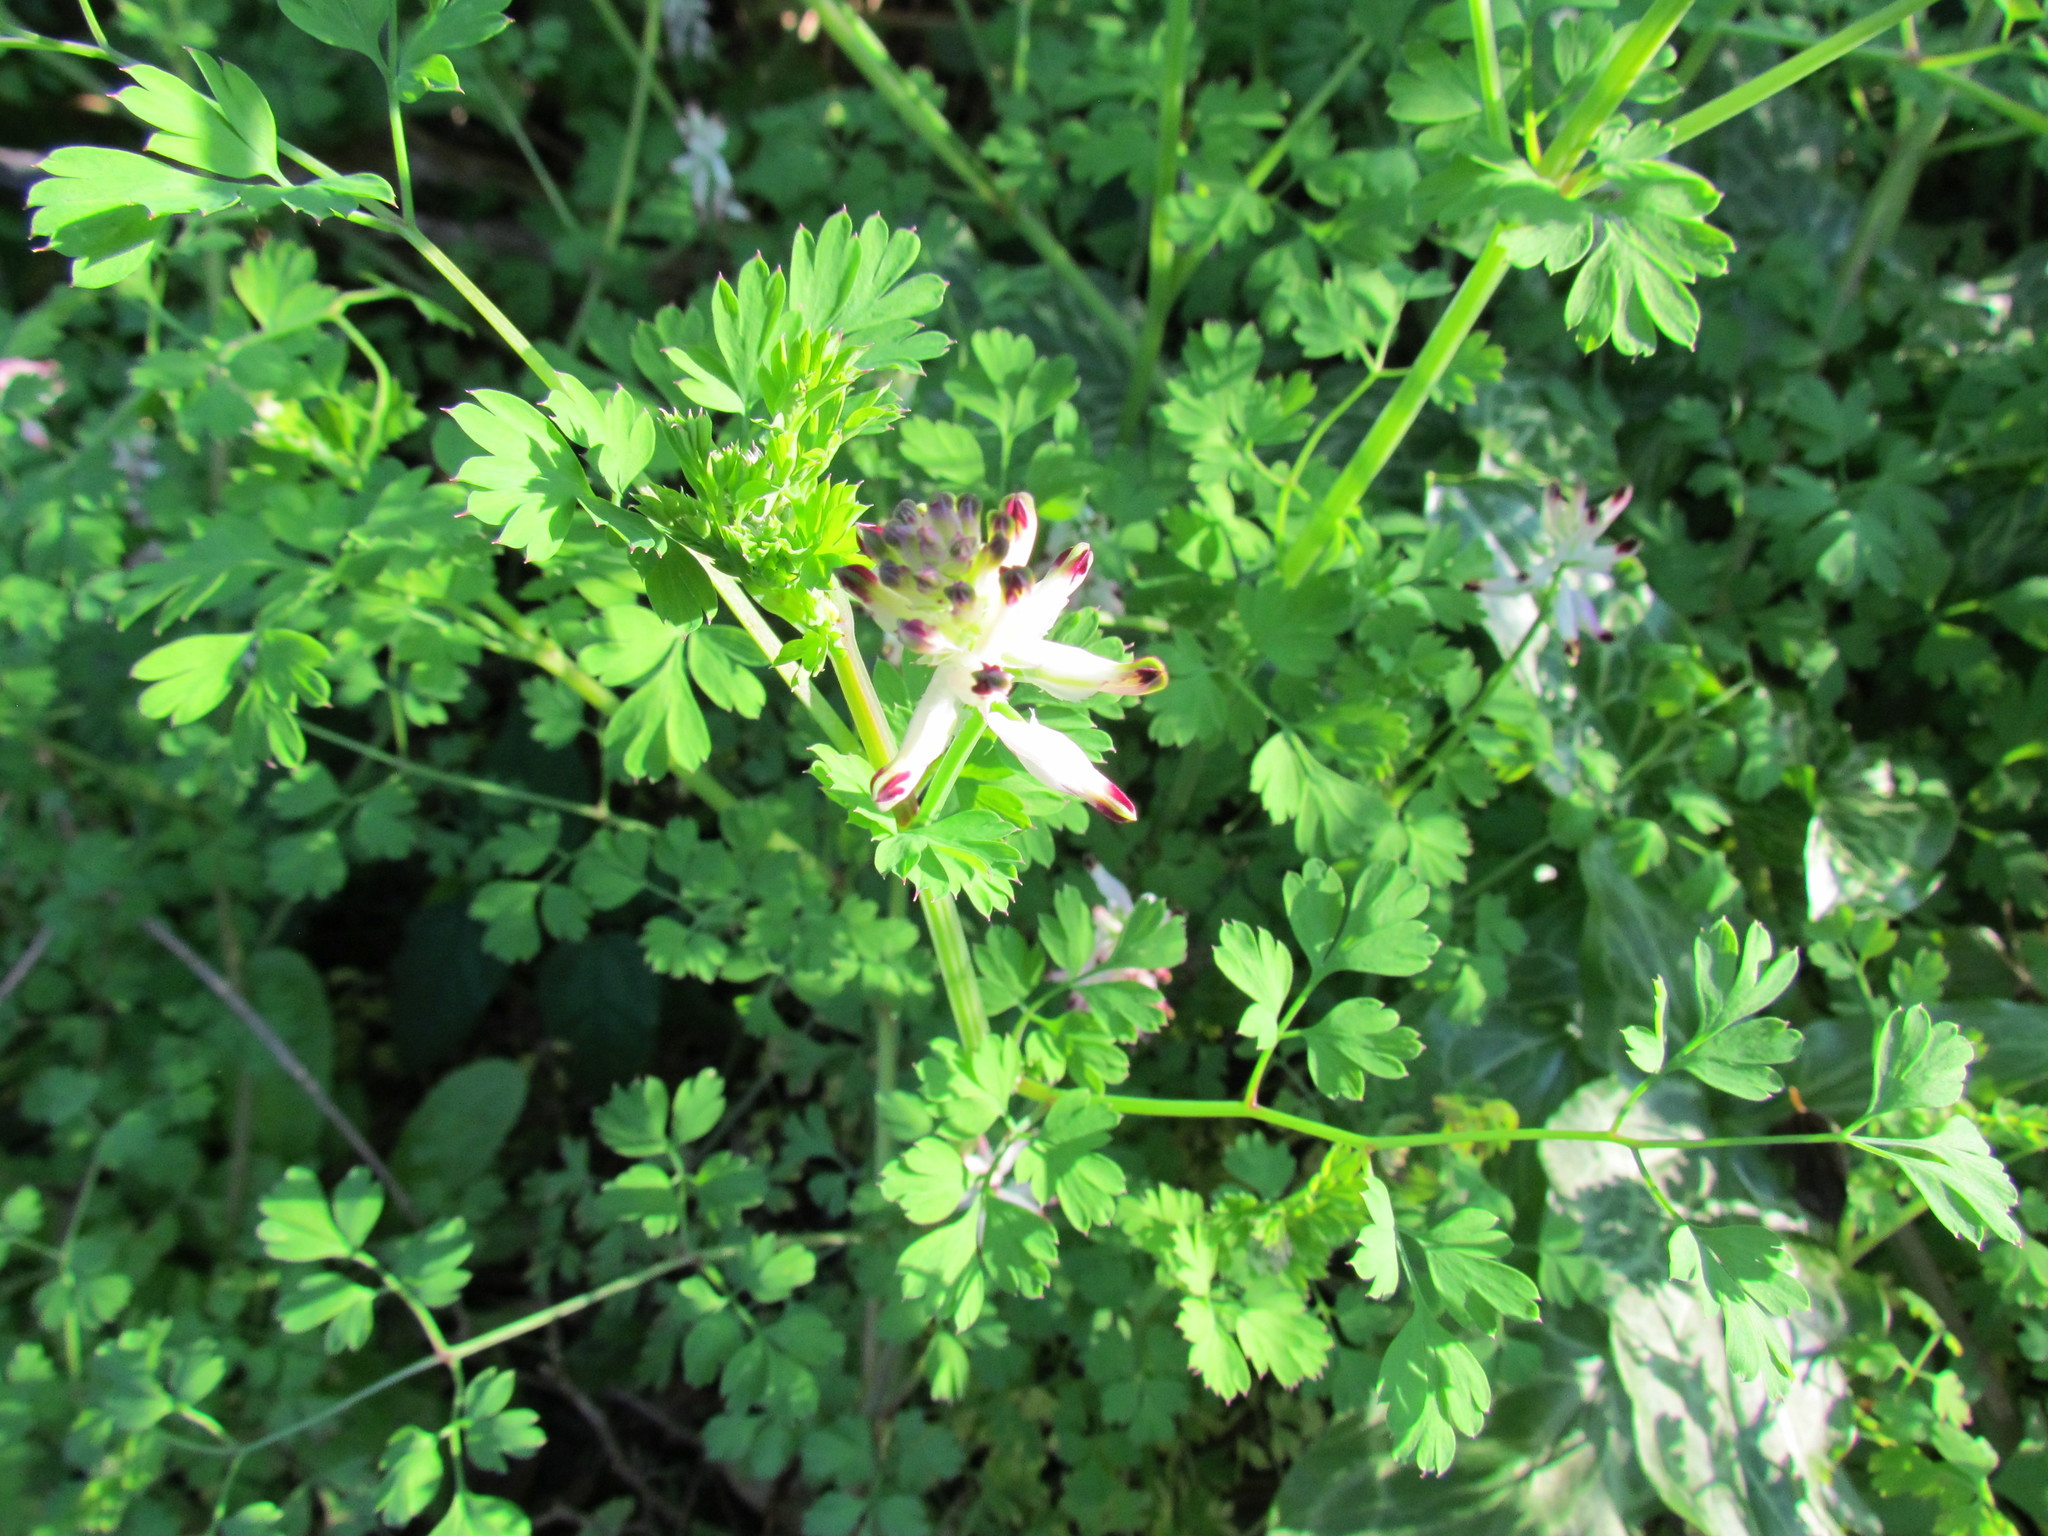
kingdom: Plantae
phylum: Tracheophyta
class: Magnoliopsida
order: Ranunculales
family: Papaveraceae
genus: Fumaria
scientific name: Fumaria capreolata
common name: White ramping-fumitory
